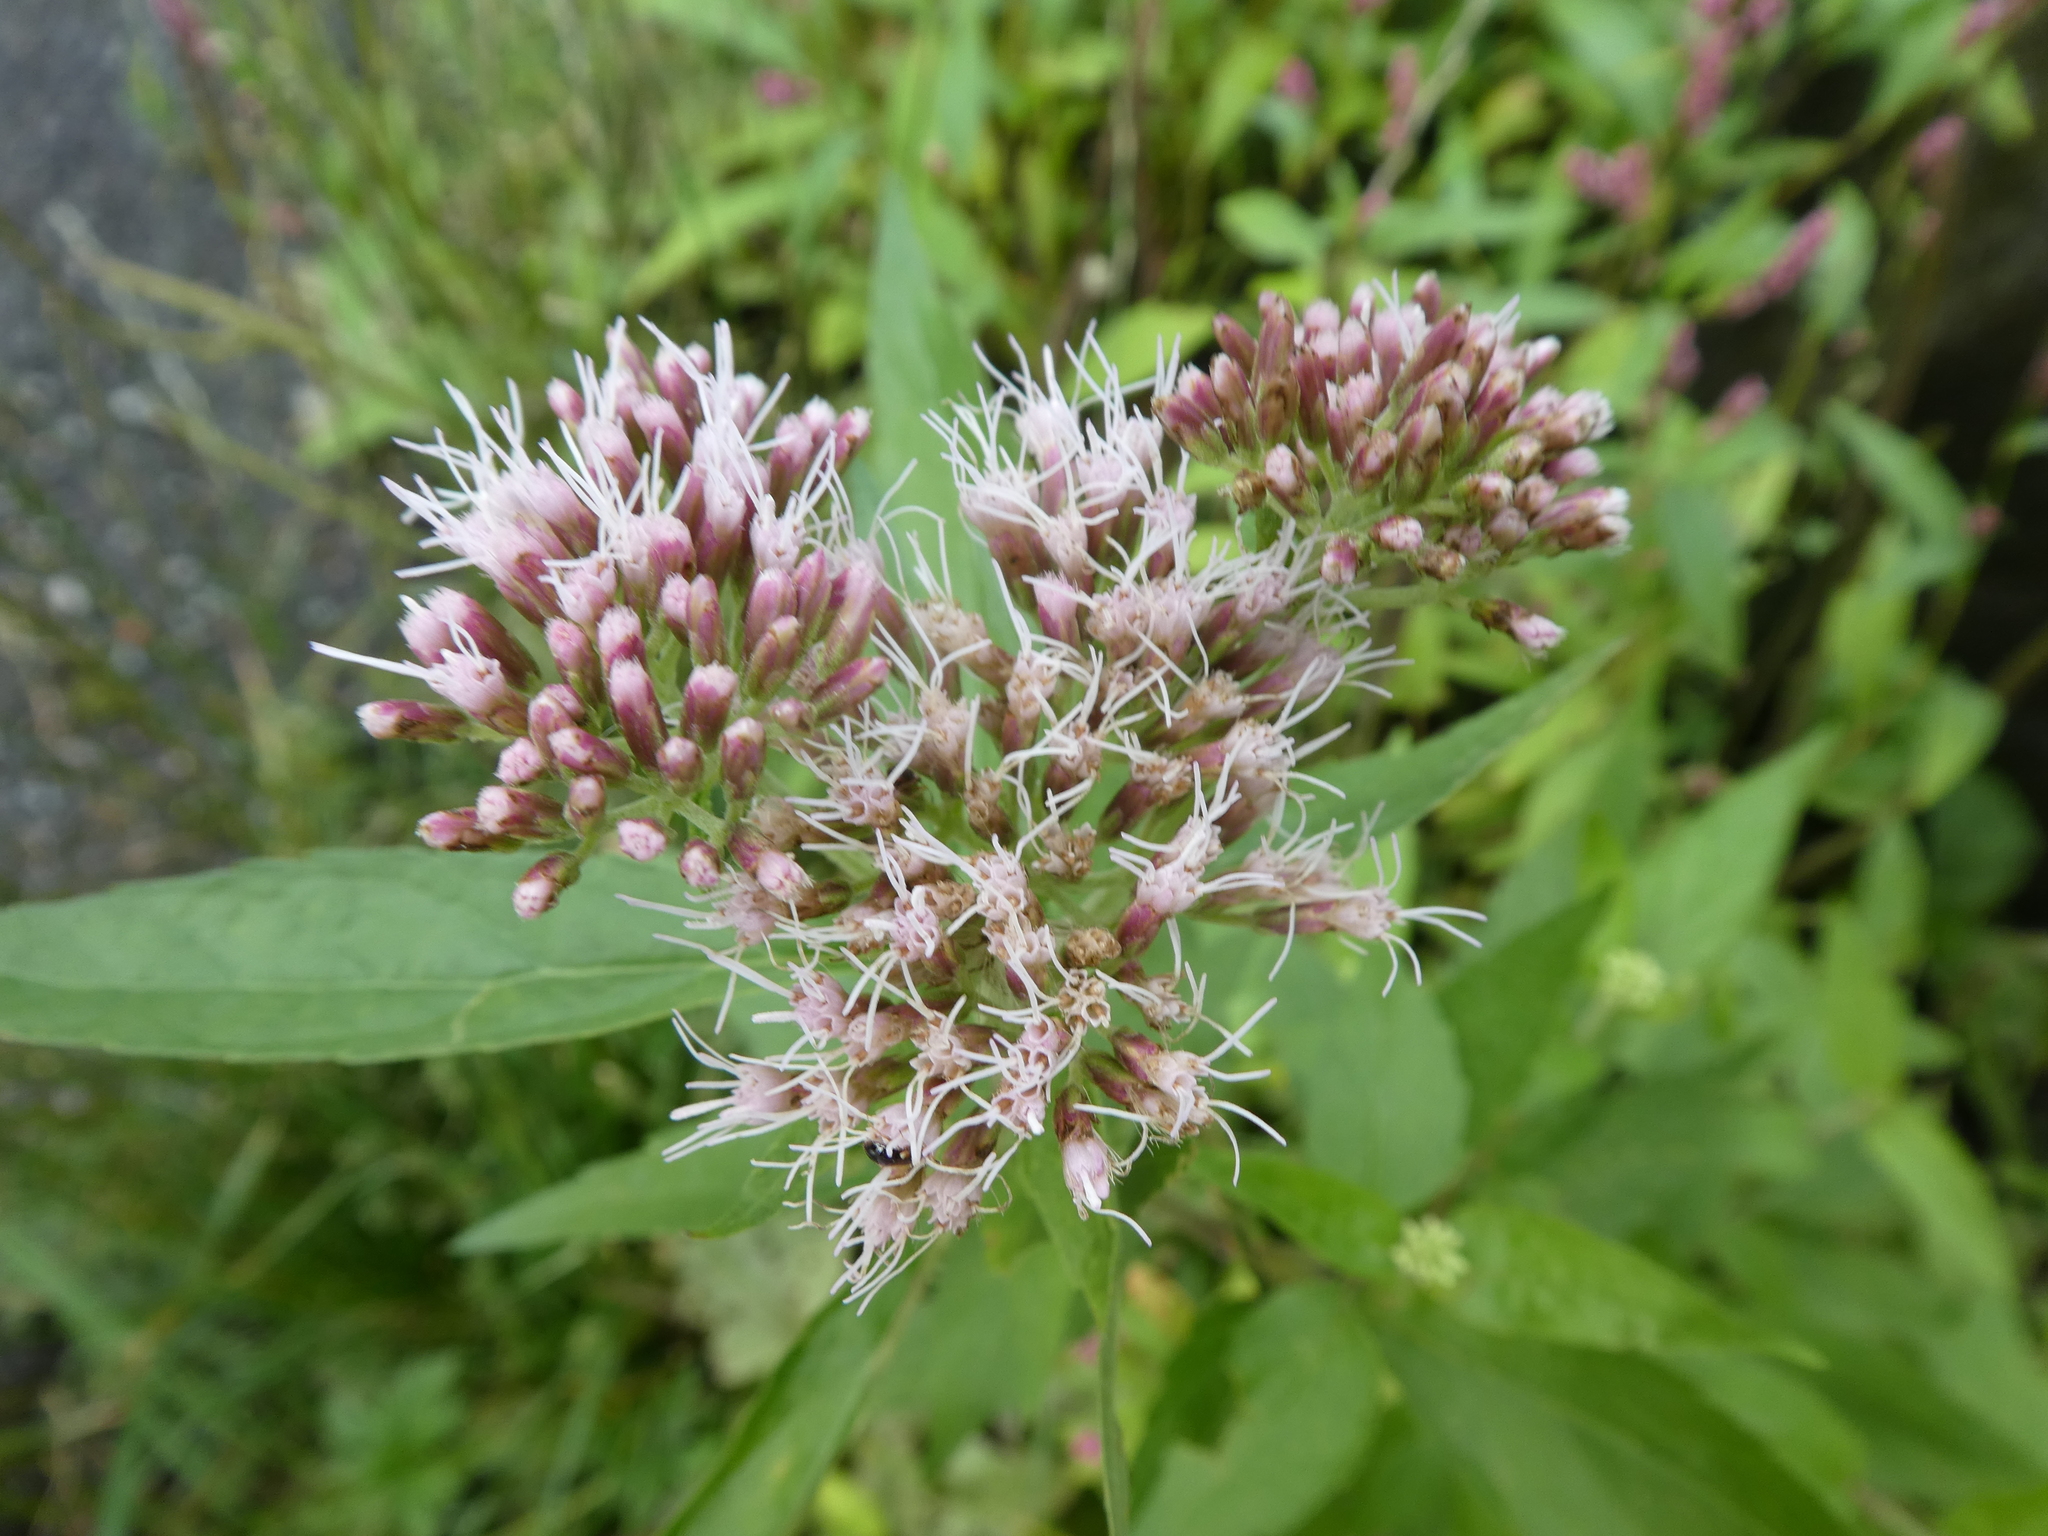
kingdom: Plantae
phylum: Tracheophyta
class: Magnoliopsida
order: Asterales
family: Asteraceae
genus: Eupatorium
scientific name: Eupatorium cannabinum
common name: Hemp-agrimony
